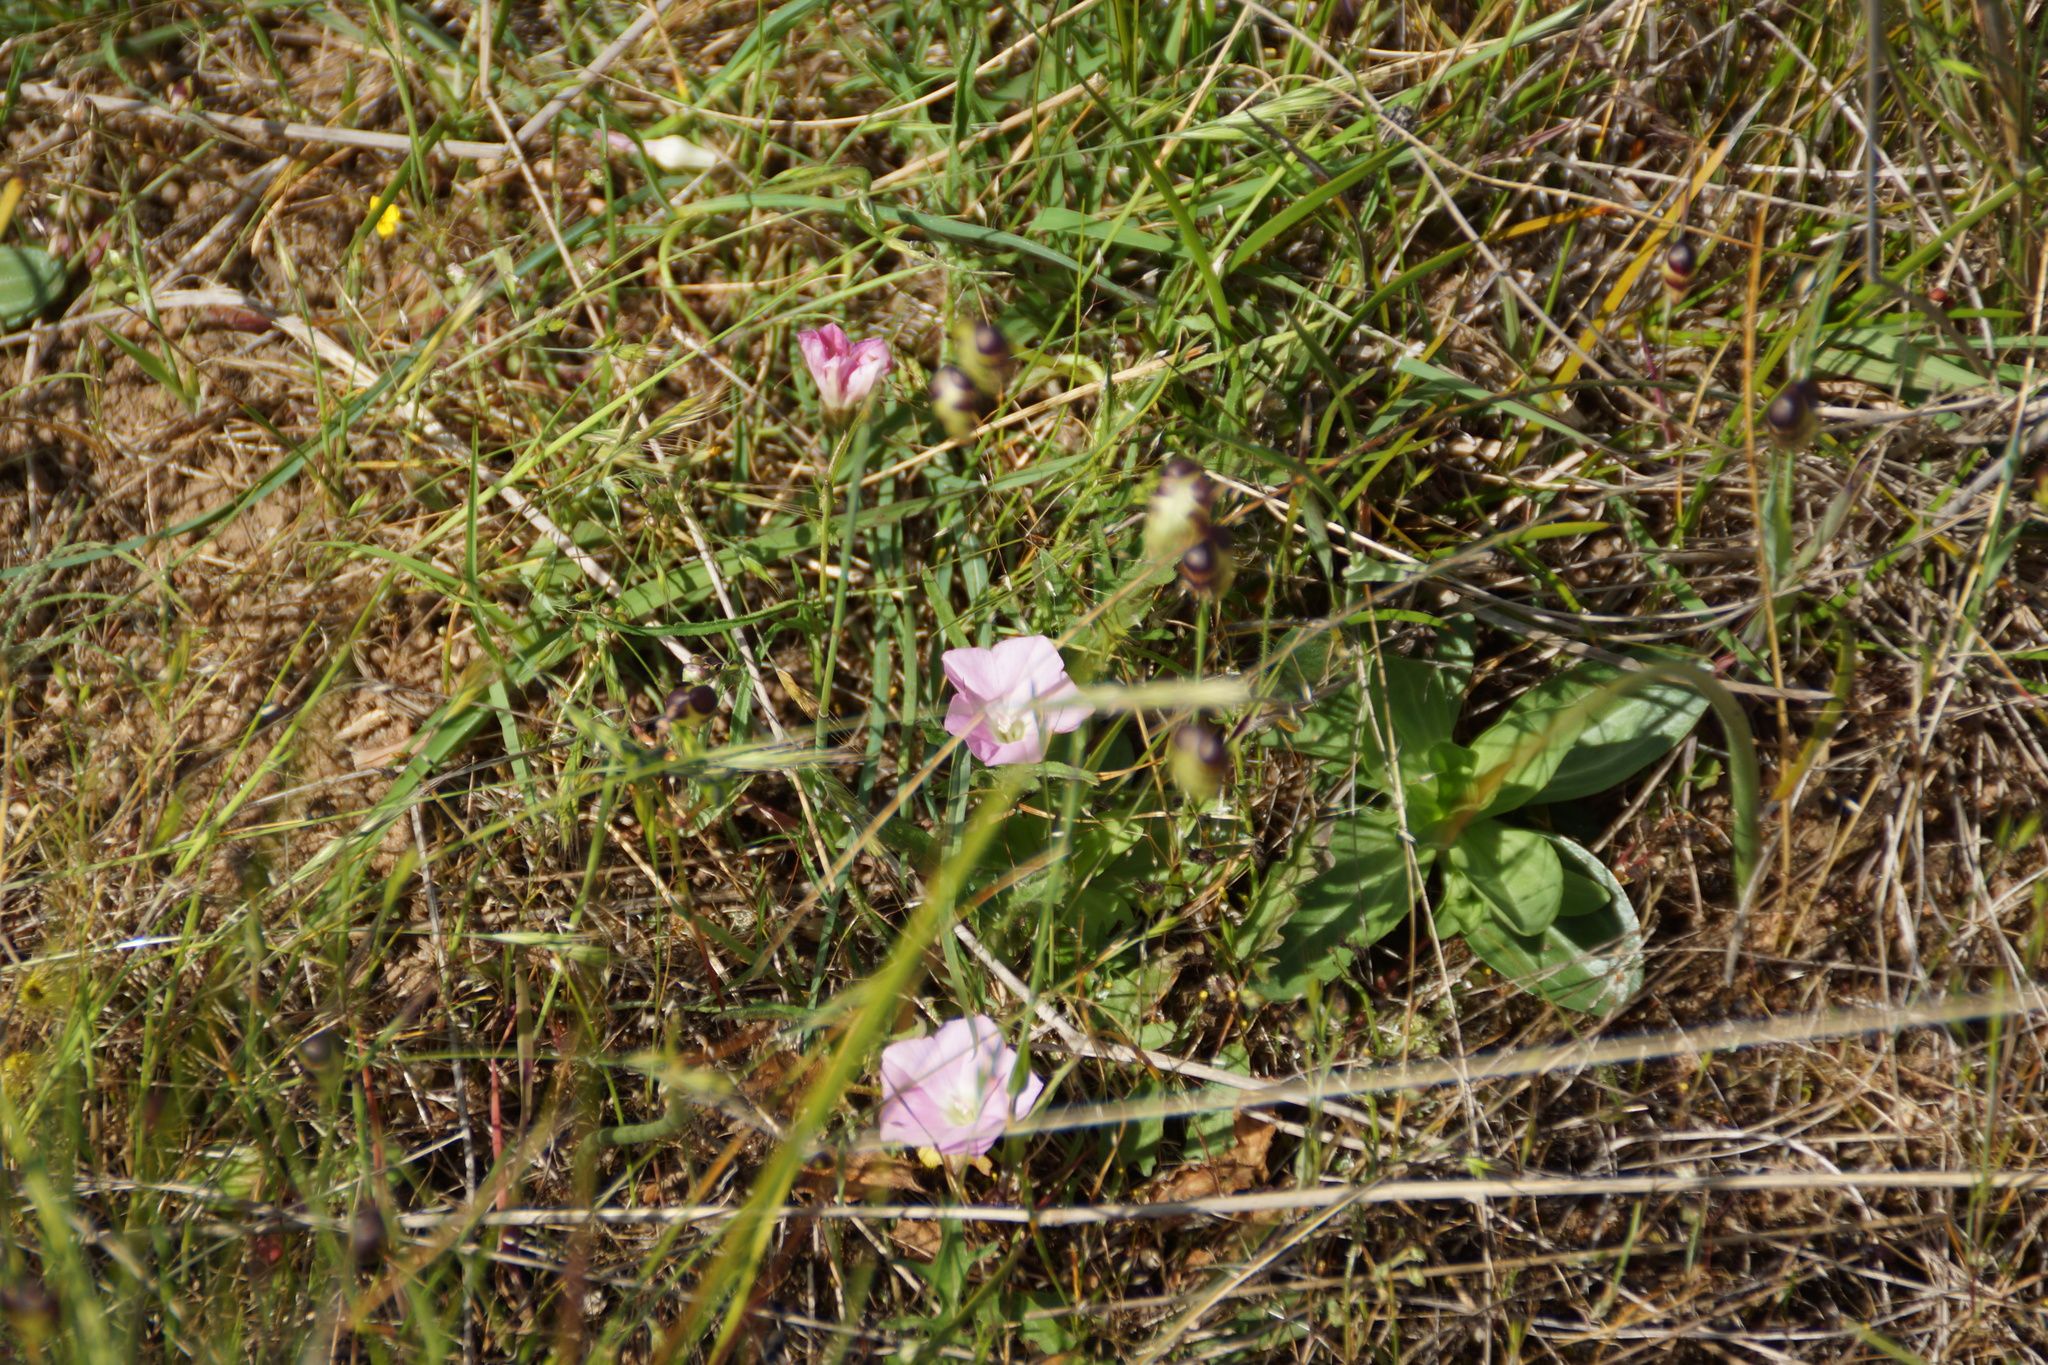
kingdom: Plantae
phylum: Tracheophyta
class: Magnoliopsida
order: Solanales
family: Convolvulaceae
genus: Convolvulus
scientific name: Convolvulus angustissimus
